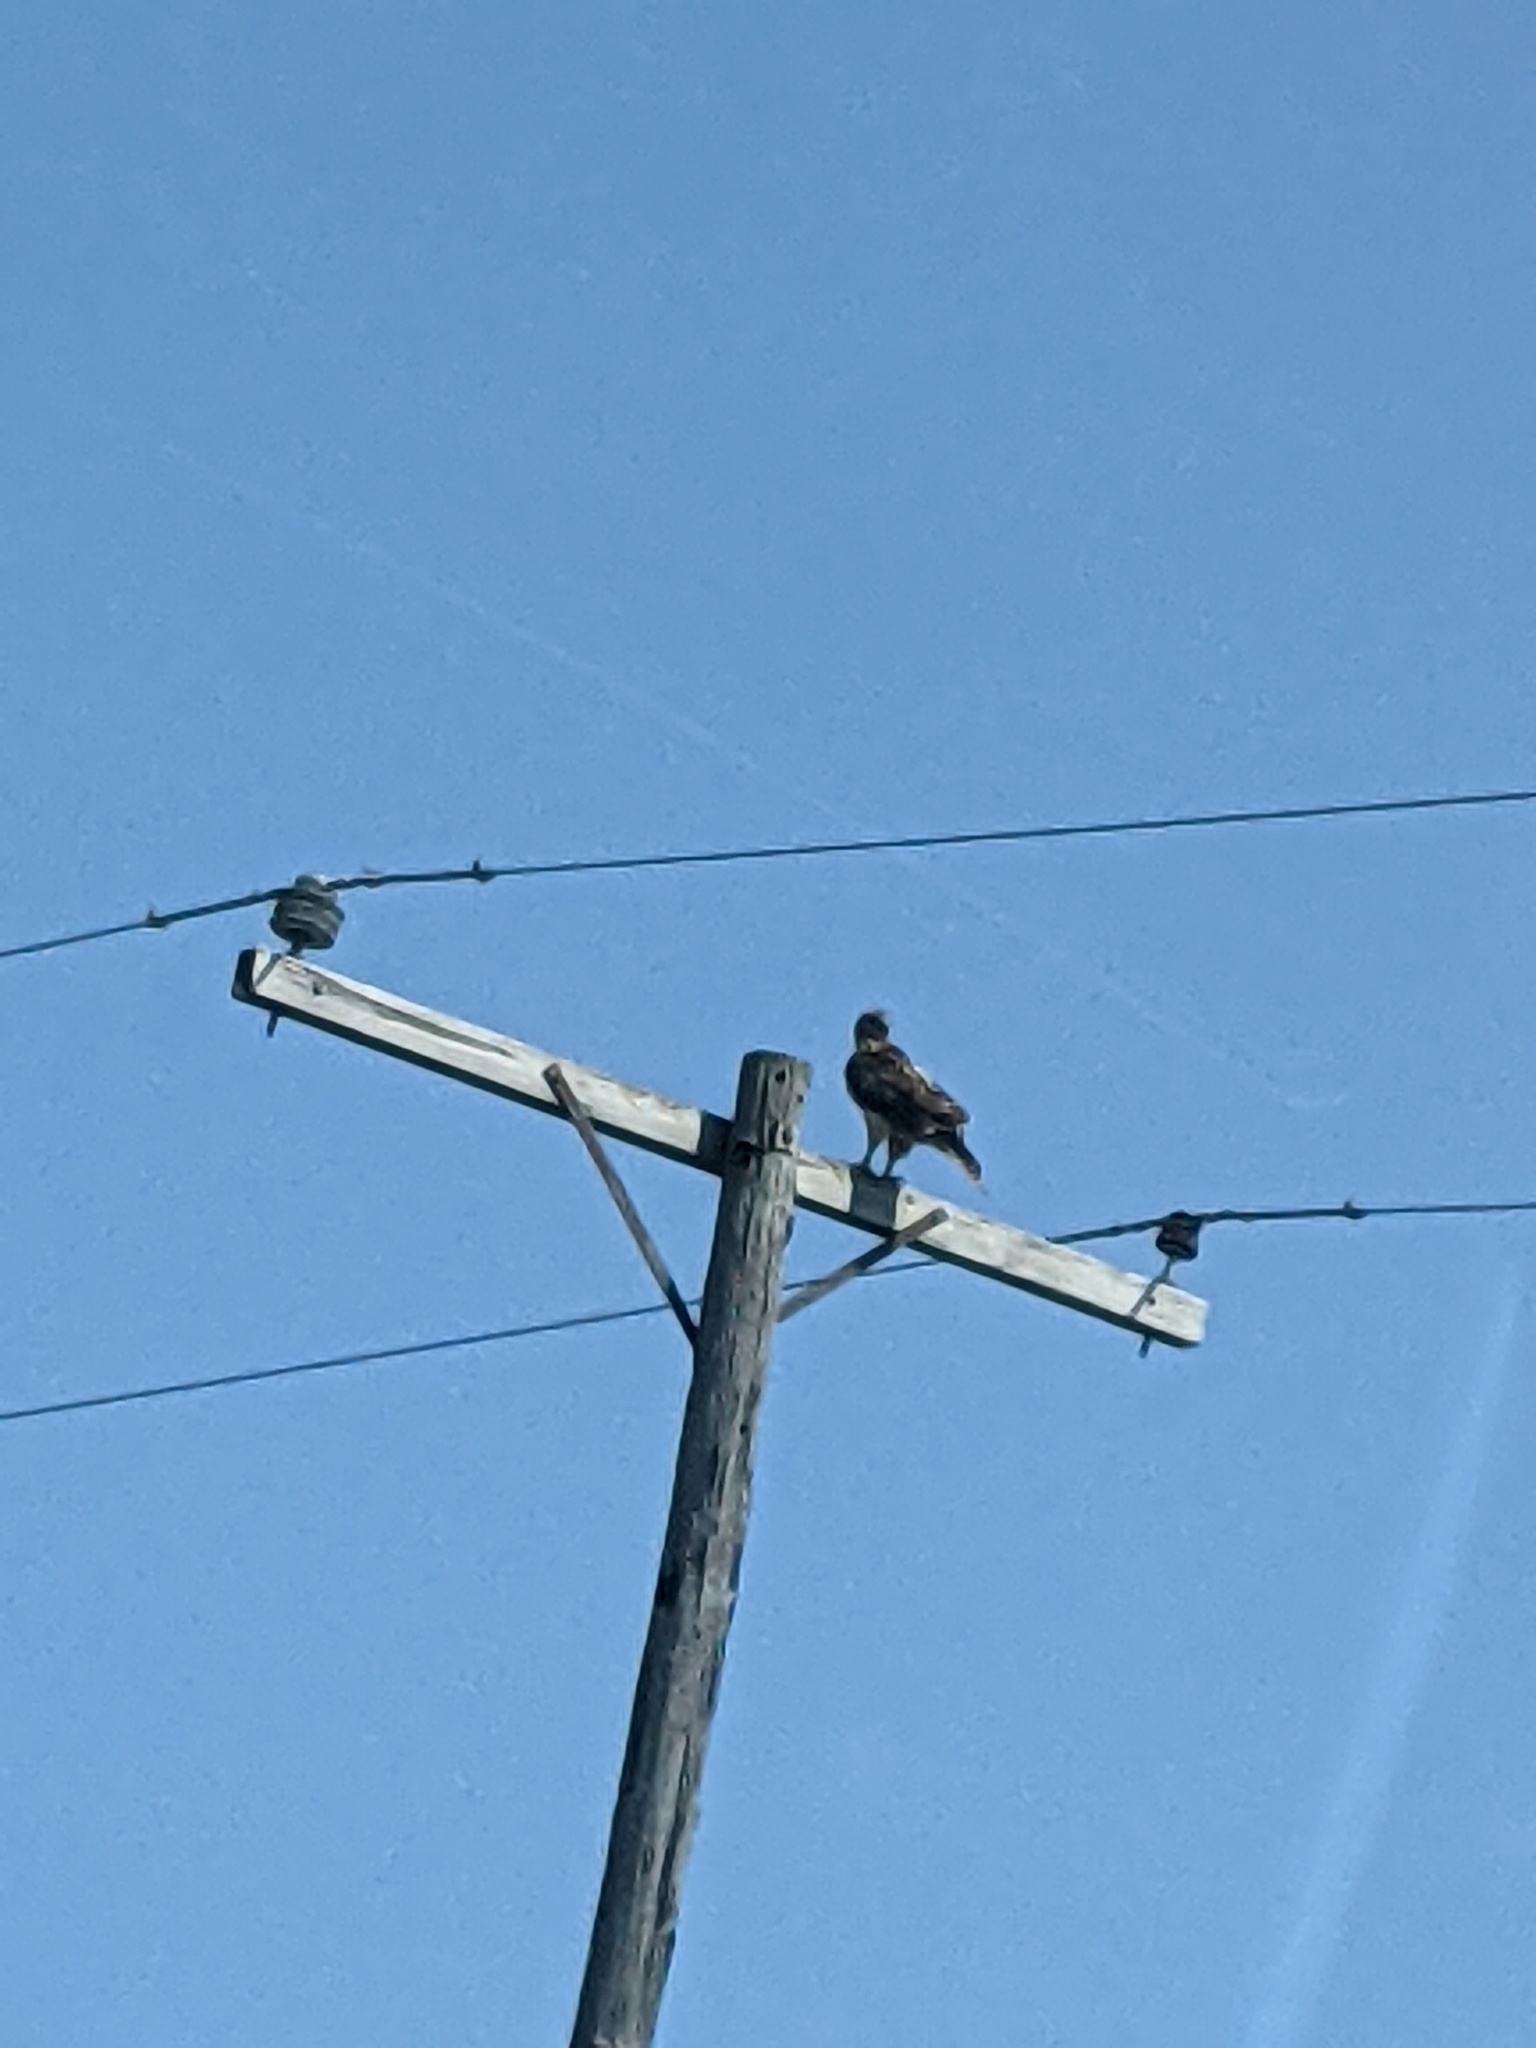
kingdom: Animalia
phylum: Chordata
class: Aves
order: Accipitriformes
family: Accipitridae
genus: Buteo
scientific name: Buteo jamaicensis
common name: Red-tailed hawk
